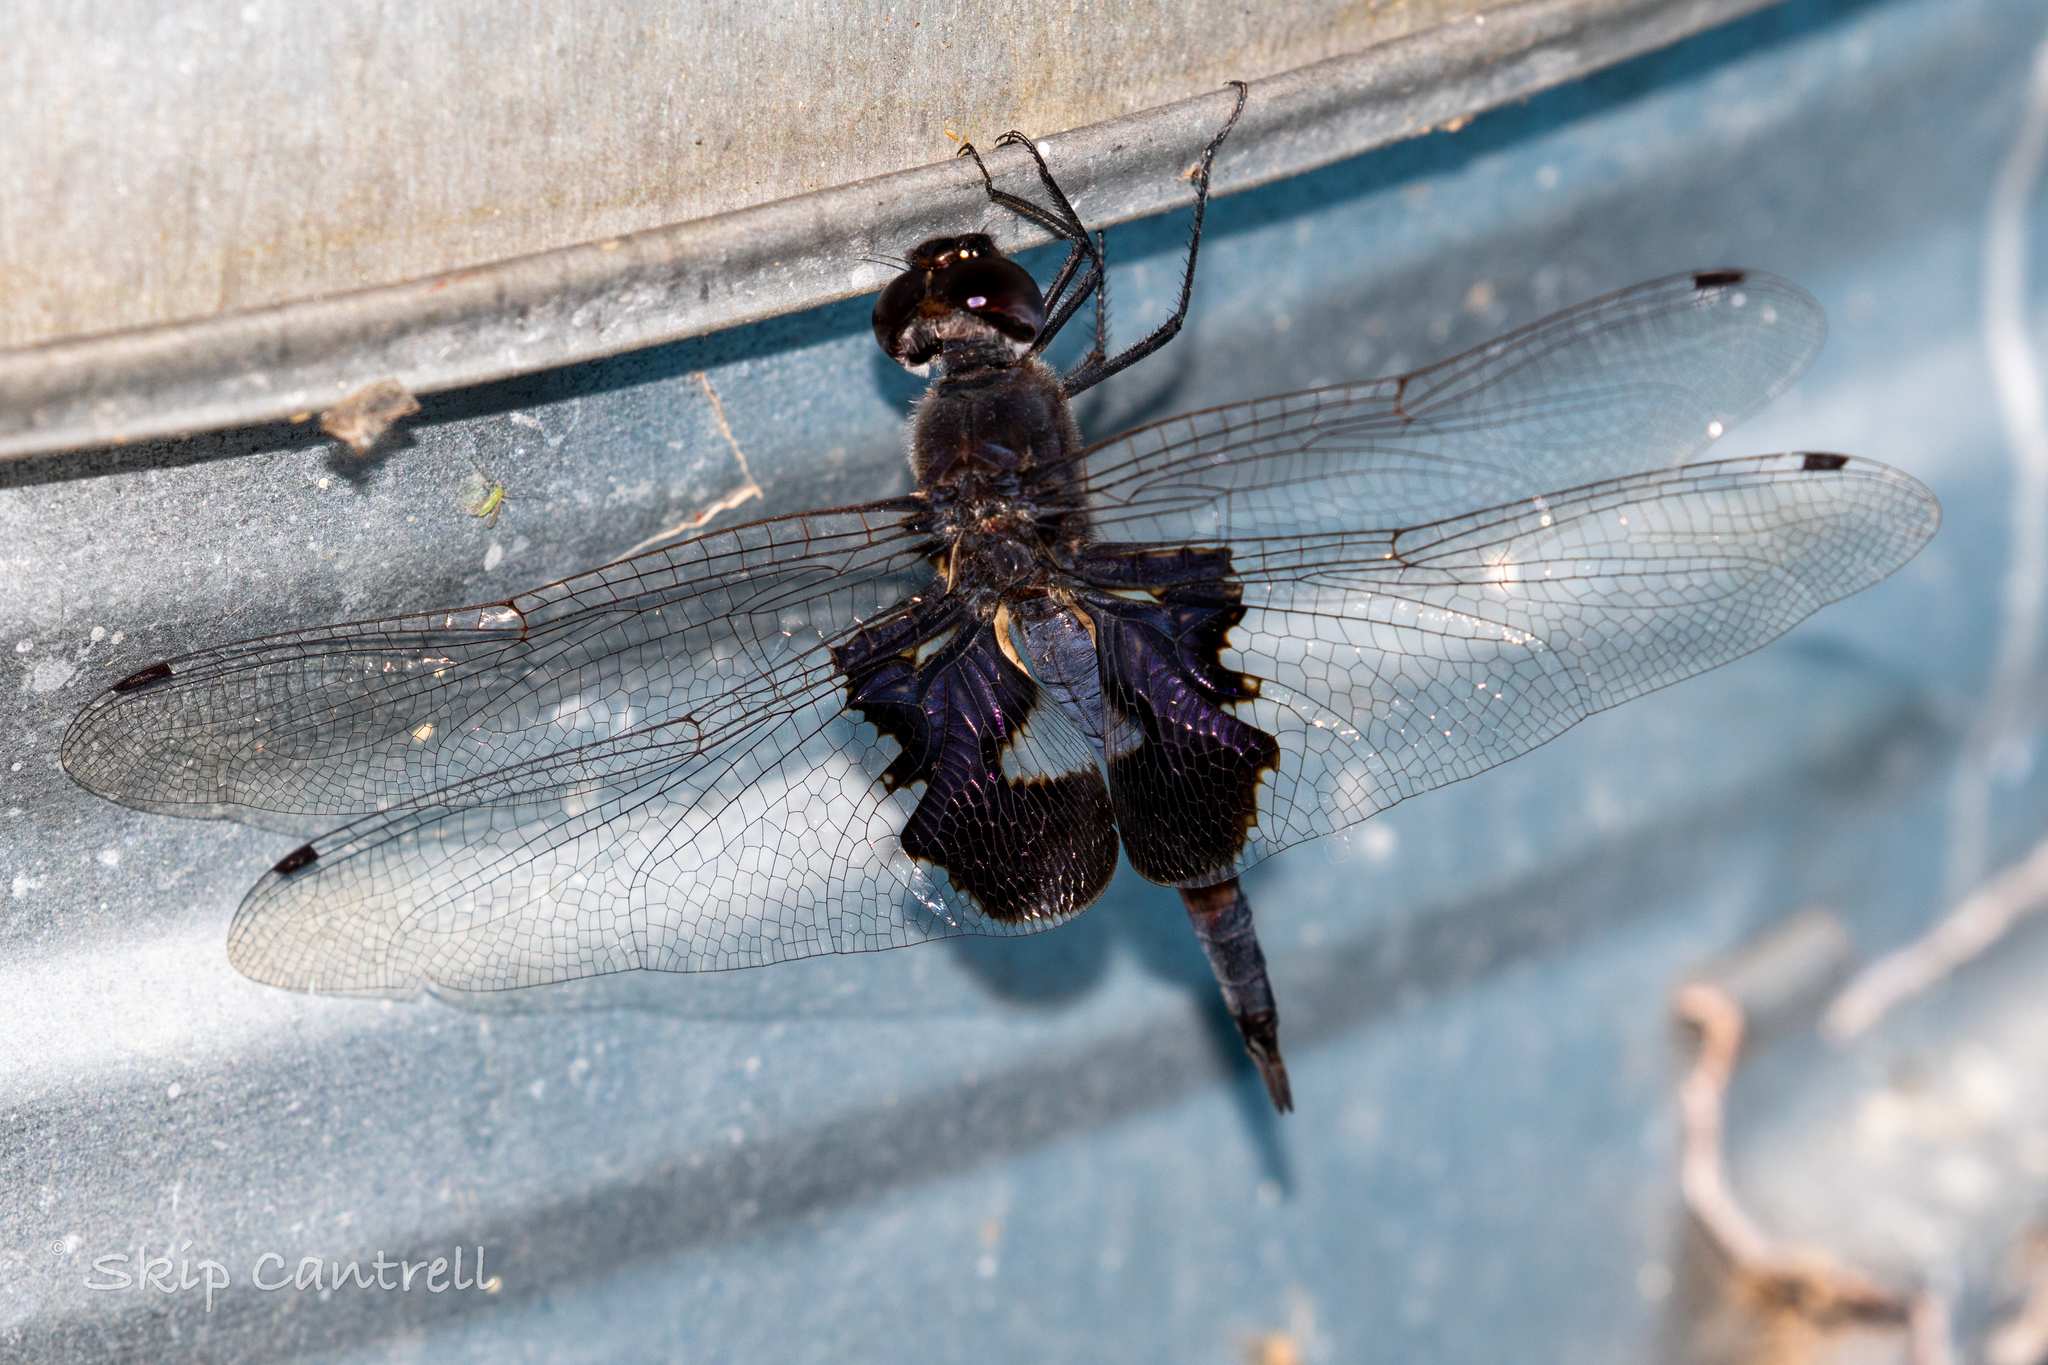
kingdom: Animalia
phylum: Arthropoda
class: Insecta
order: Odonata
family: Libellulidae
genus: Tramea
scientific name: Tramea lacerata
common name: Black saddlebags
